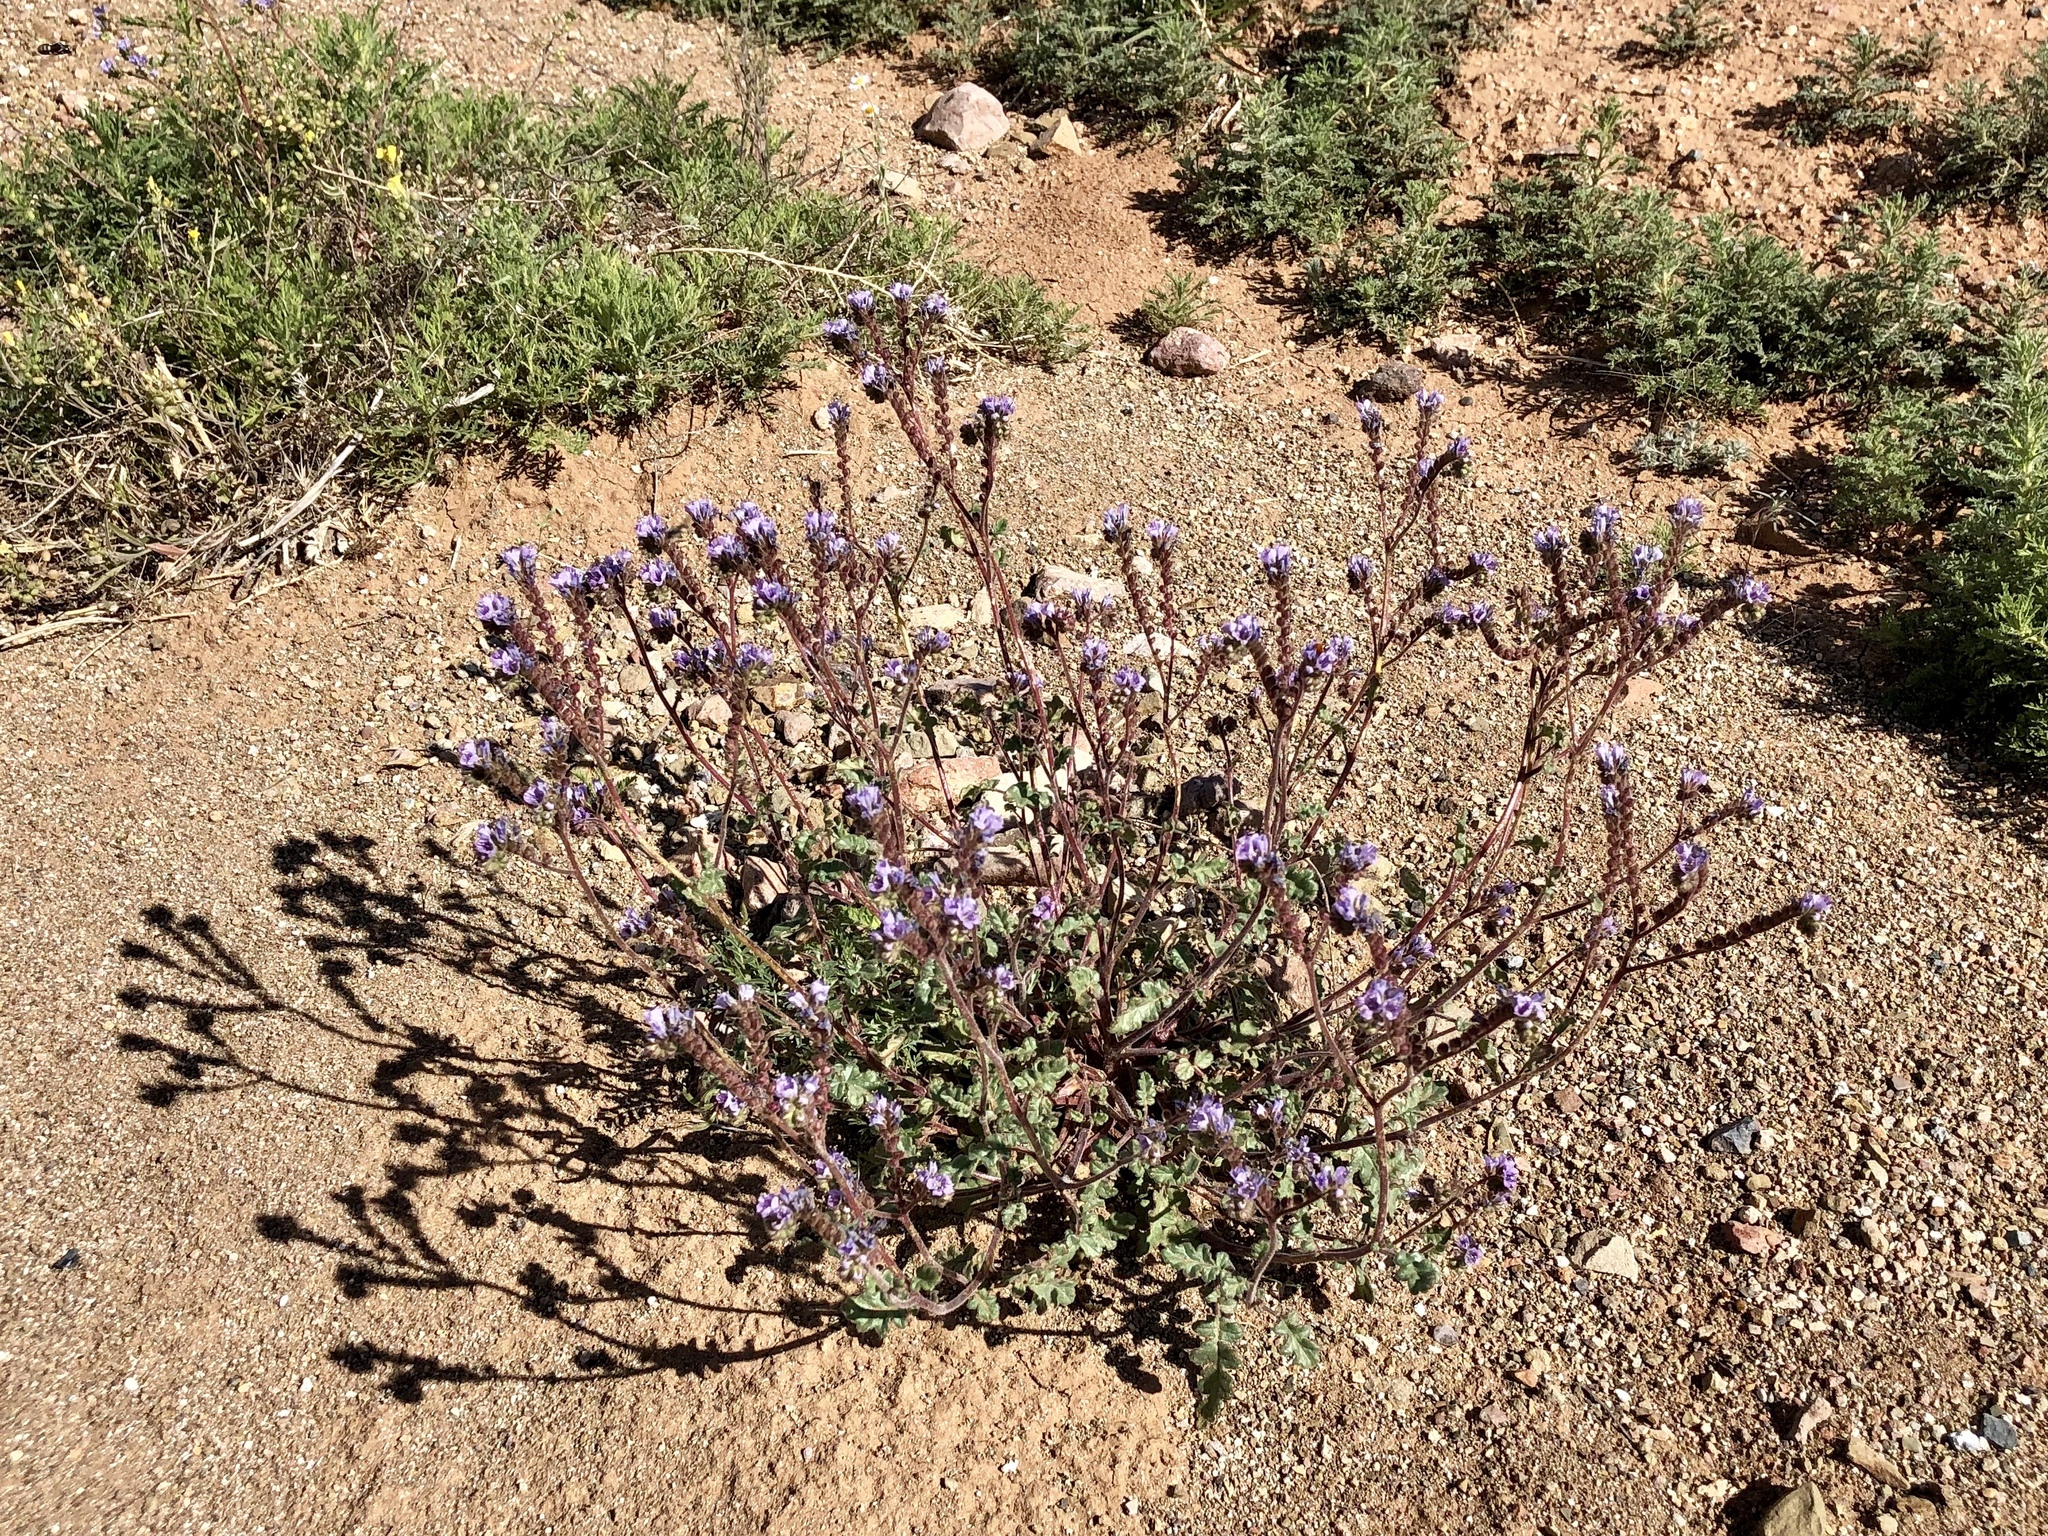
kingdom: Plantae
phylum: Tracheophyta
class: Magnoliopsida
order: Boraginales
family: Hydrophyllaceae
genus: Phacelia
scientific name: Phacelia bombycina
